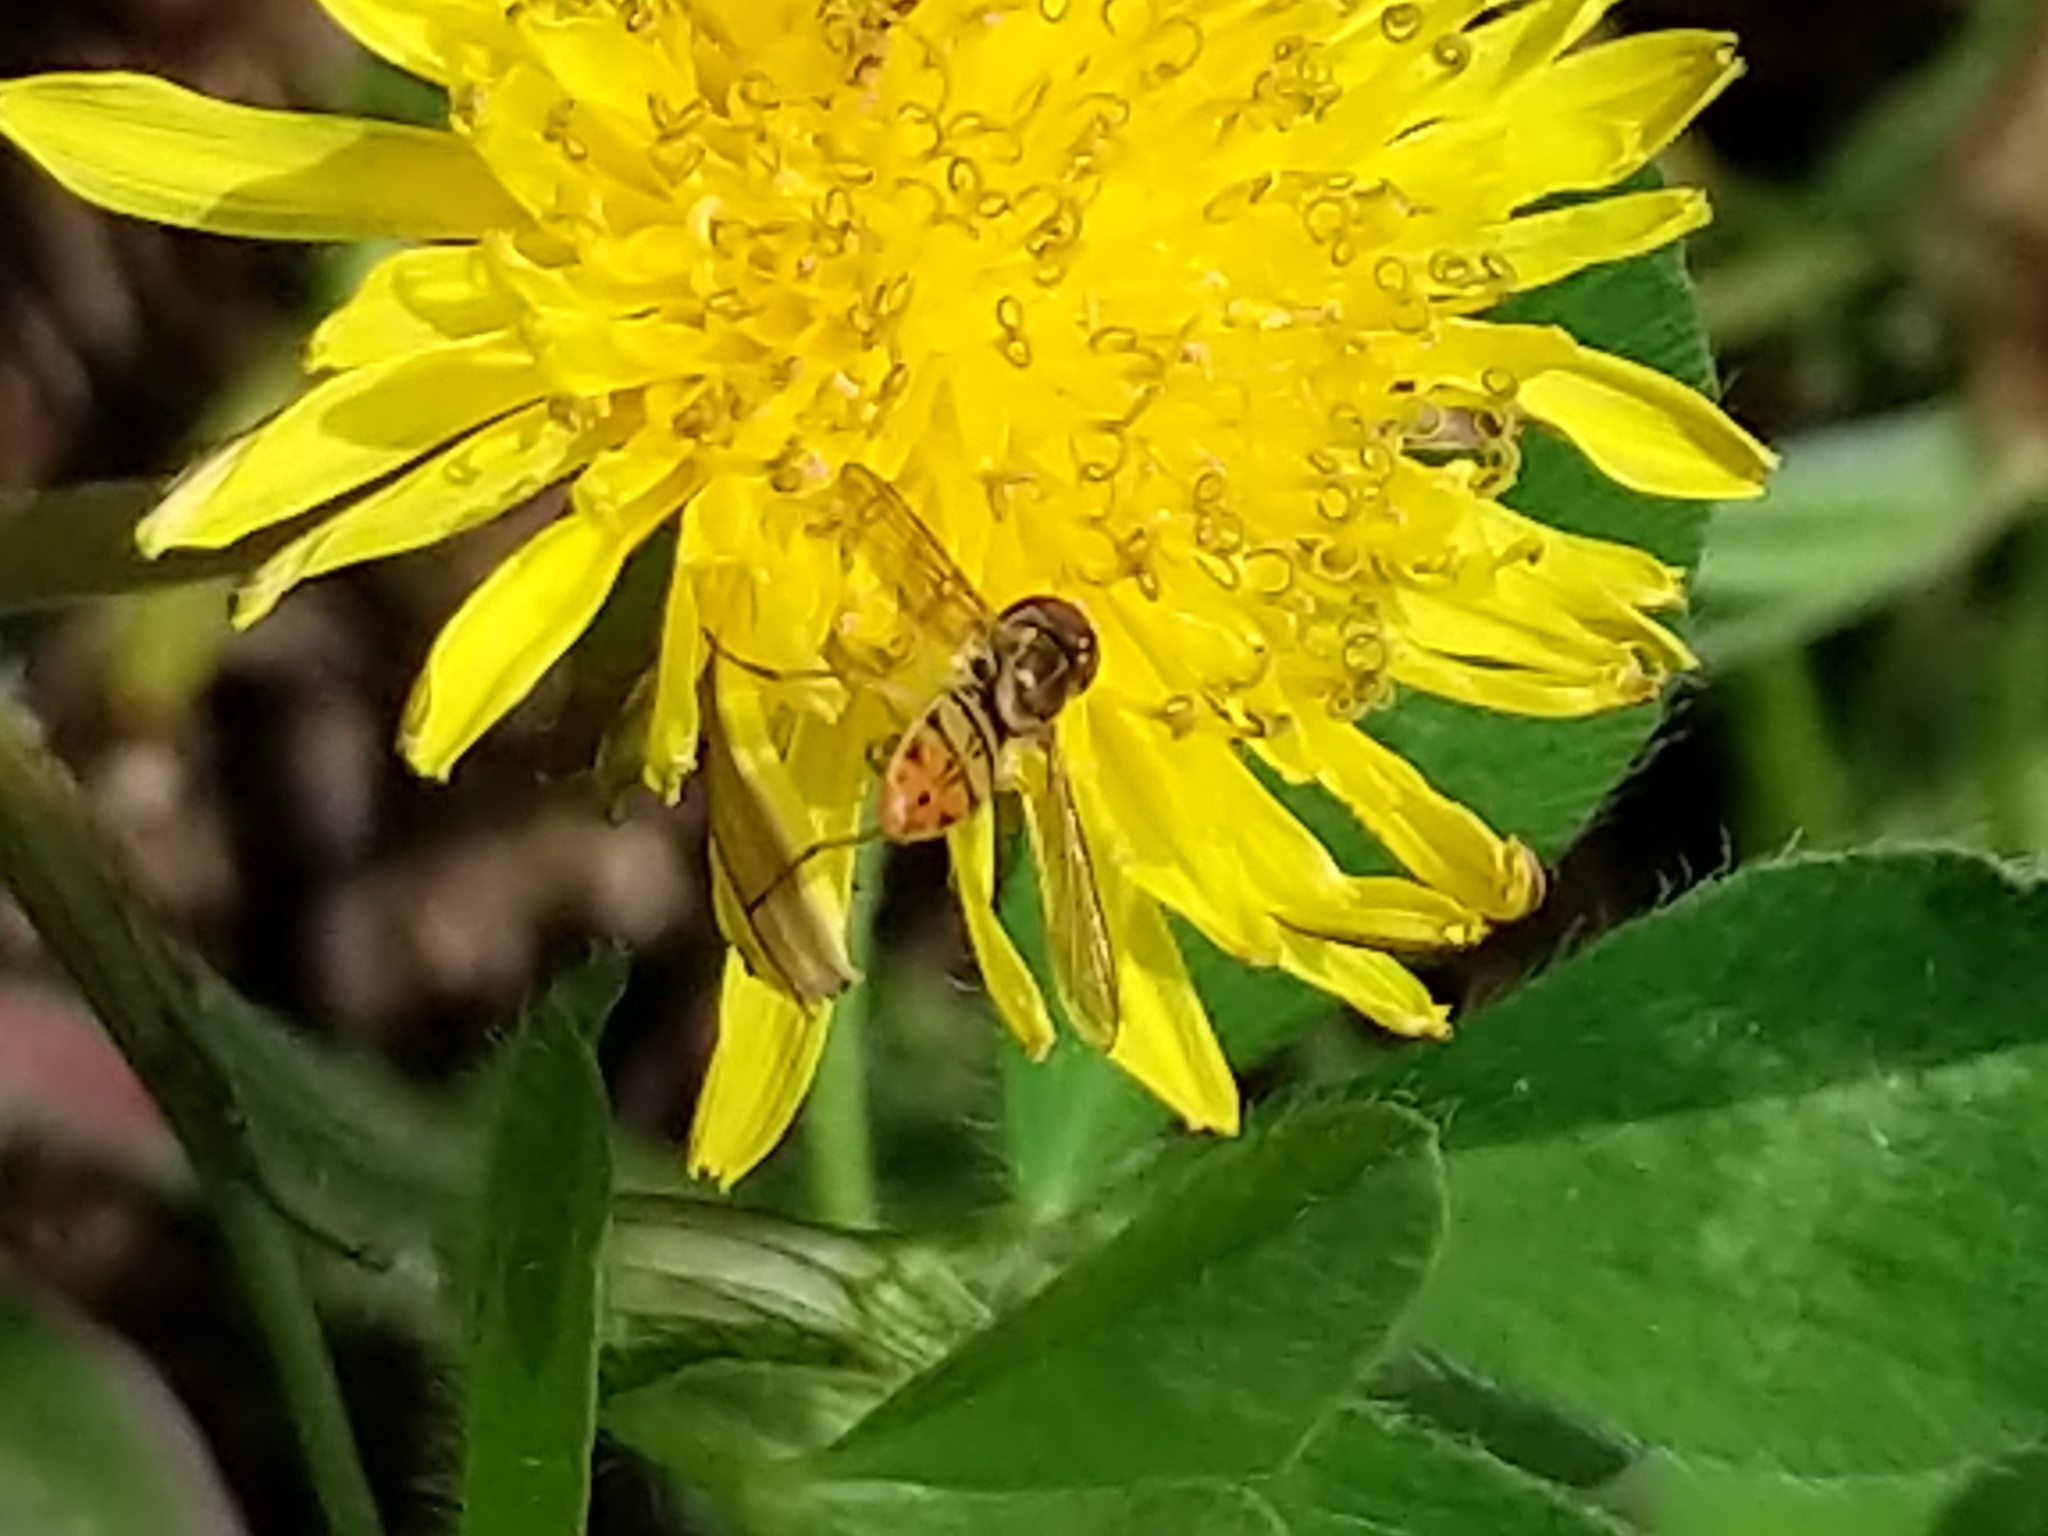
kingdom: Animalia
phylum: Arthropoda
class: Insecta
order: Diptera
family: Syrphidae
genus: Toxomerus
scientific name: Toxomerus marginatus
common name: Syrphid fly
